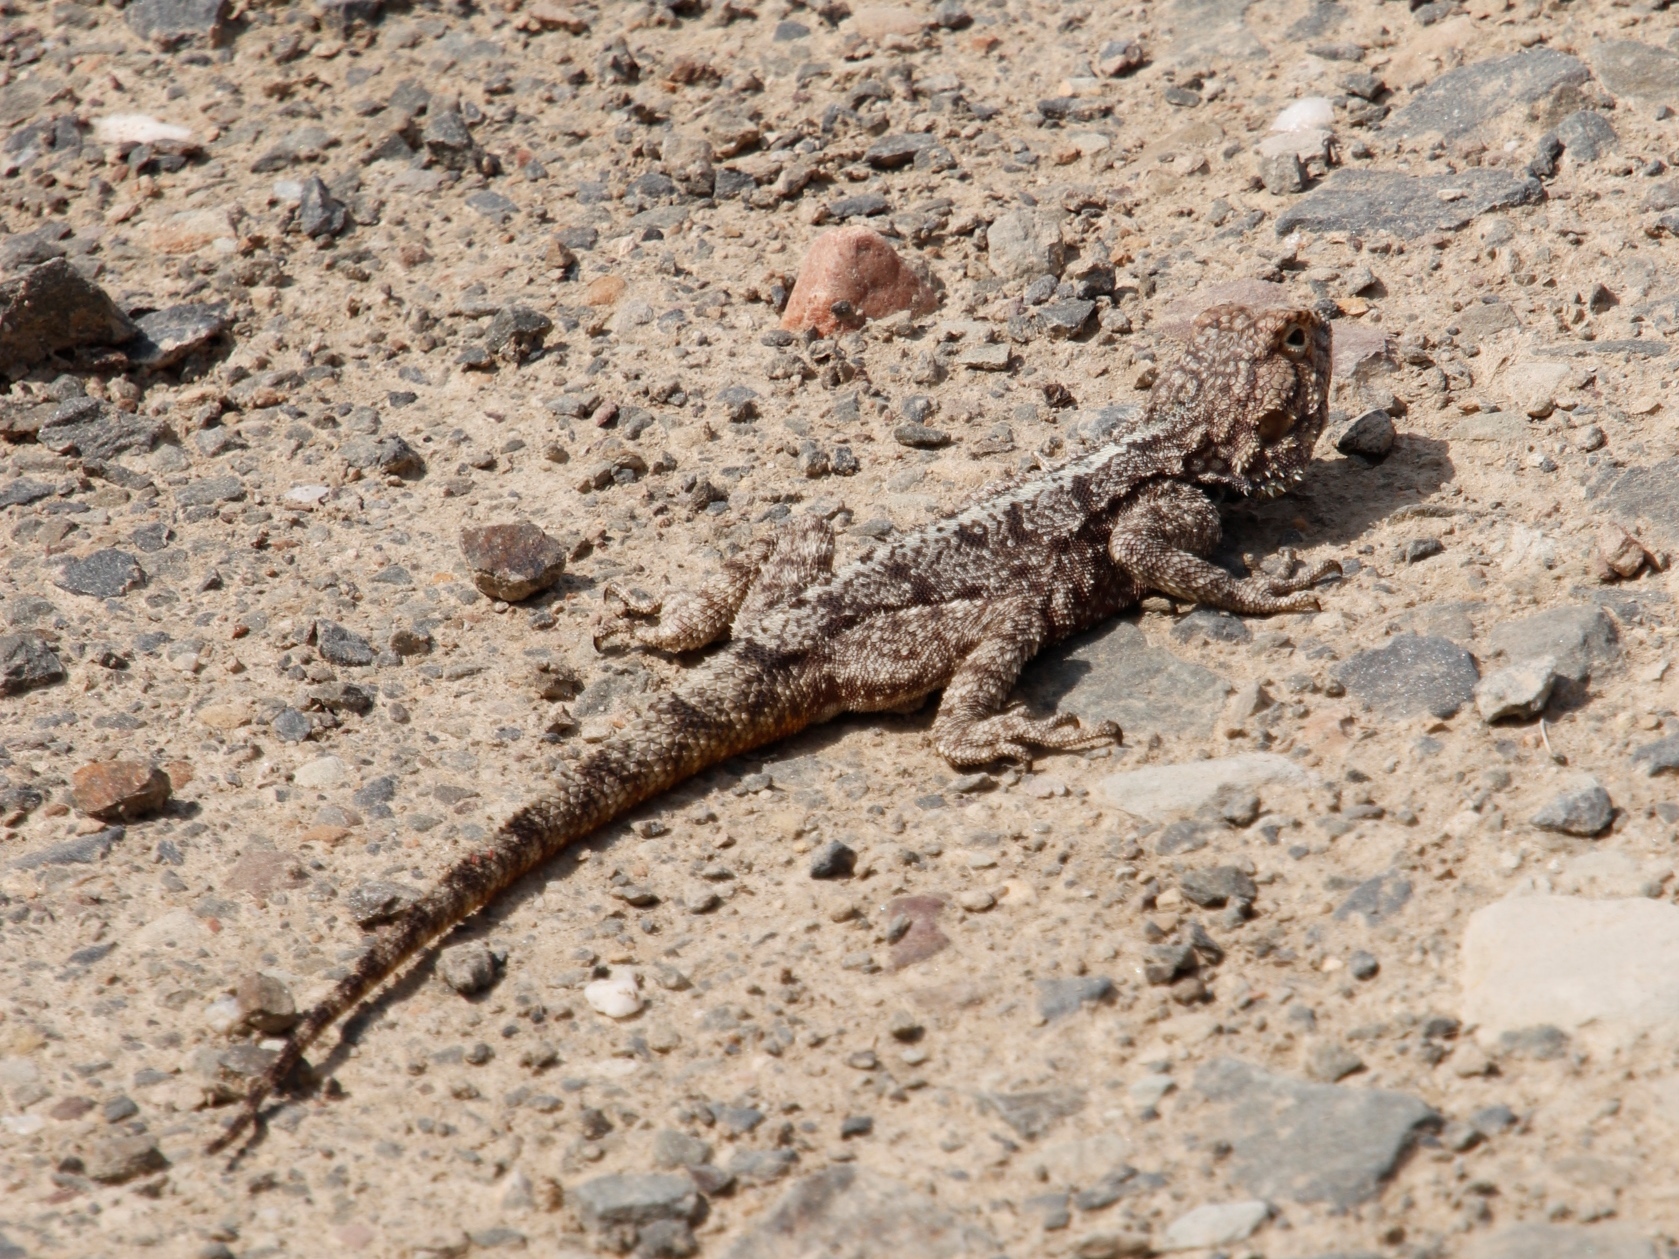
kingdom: Animalia
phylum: Chordata
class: Squamata
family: Agamidae
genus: Agama
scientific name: Agama atra
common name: Southern african rock agama
